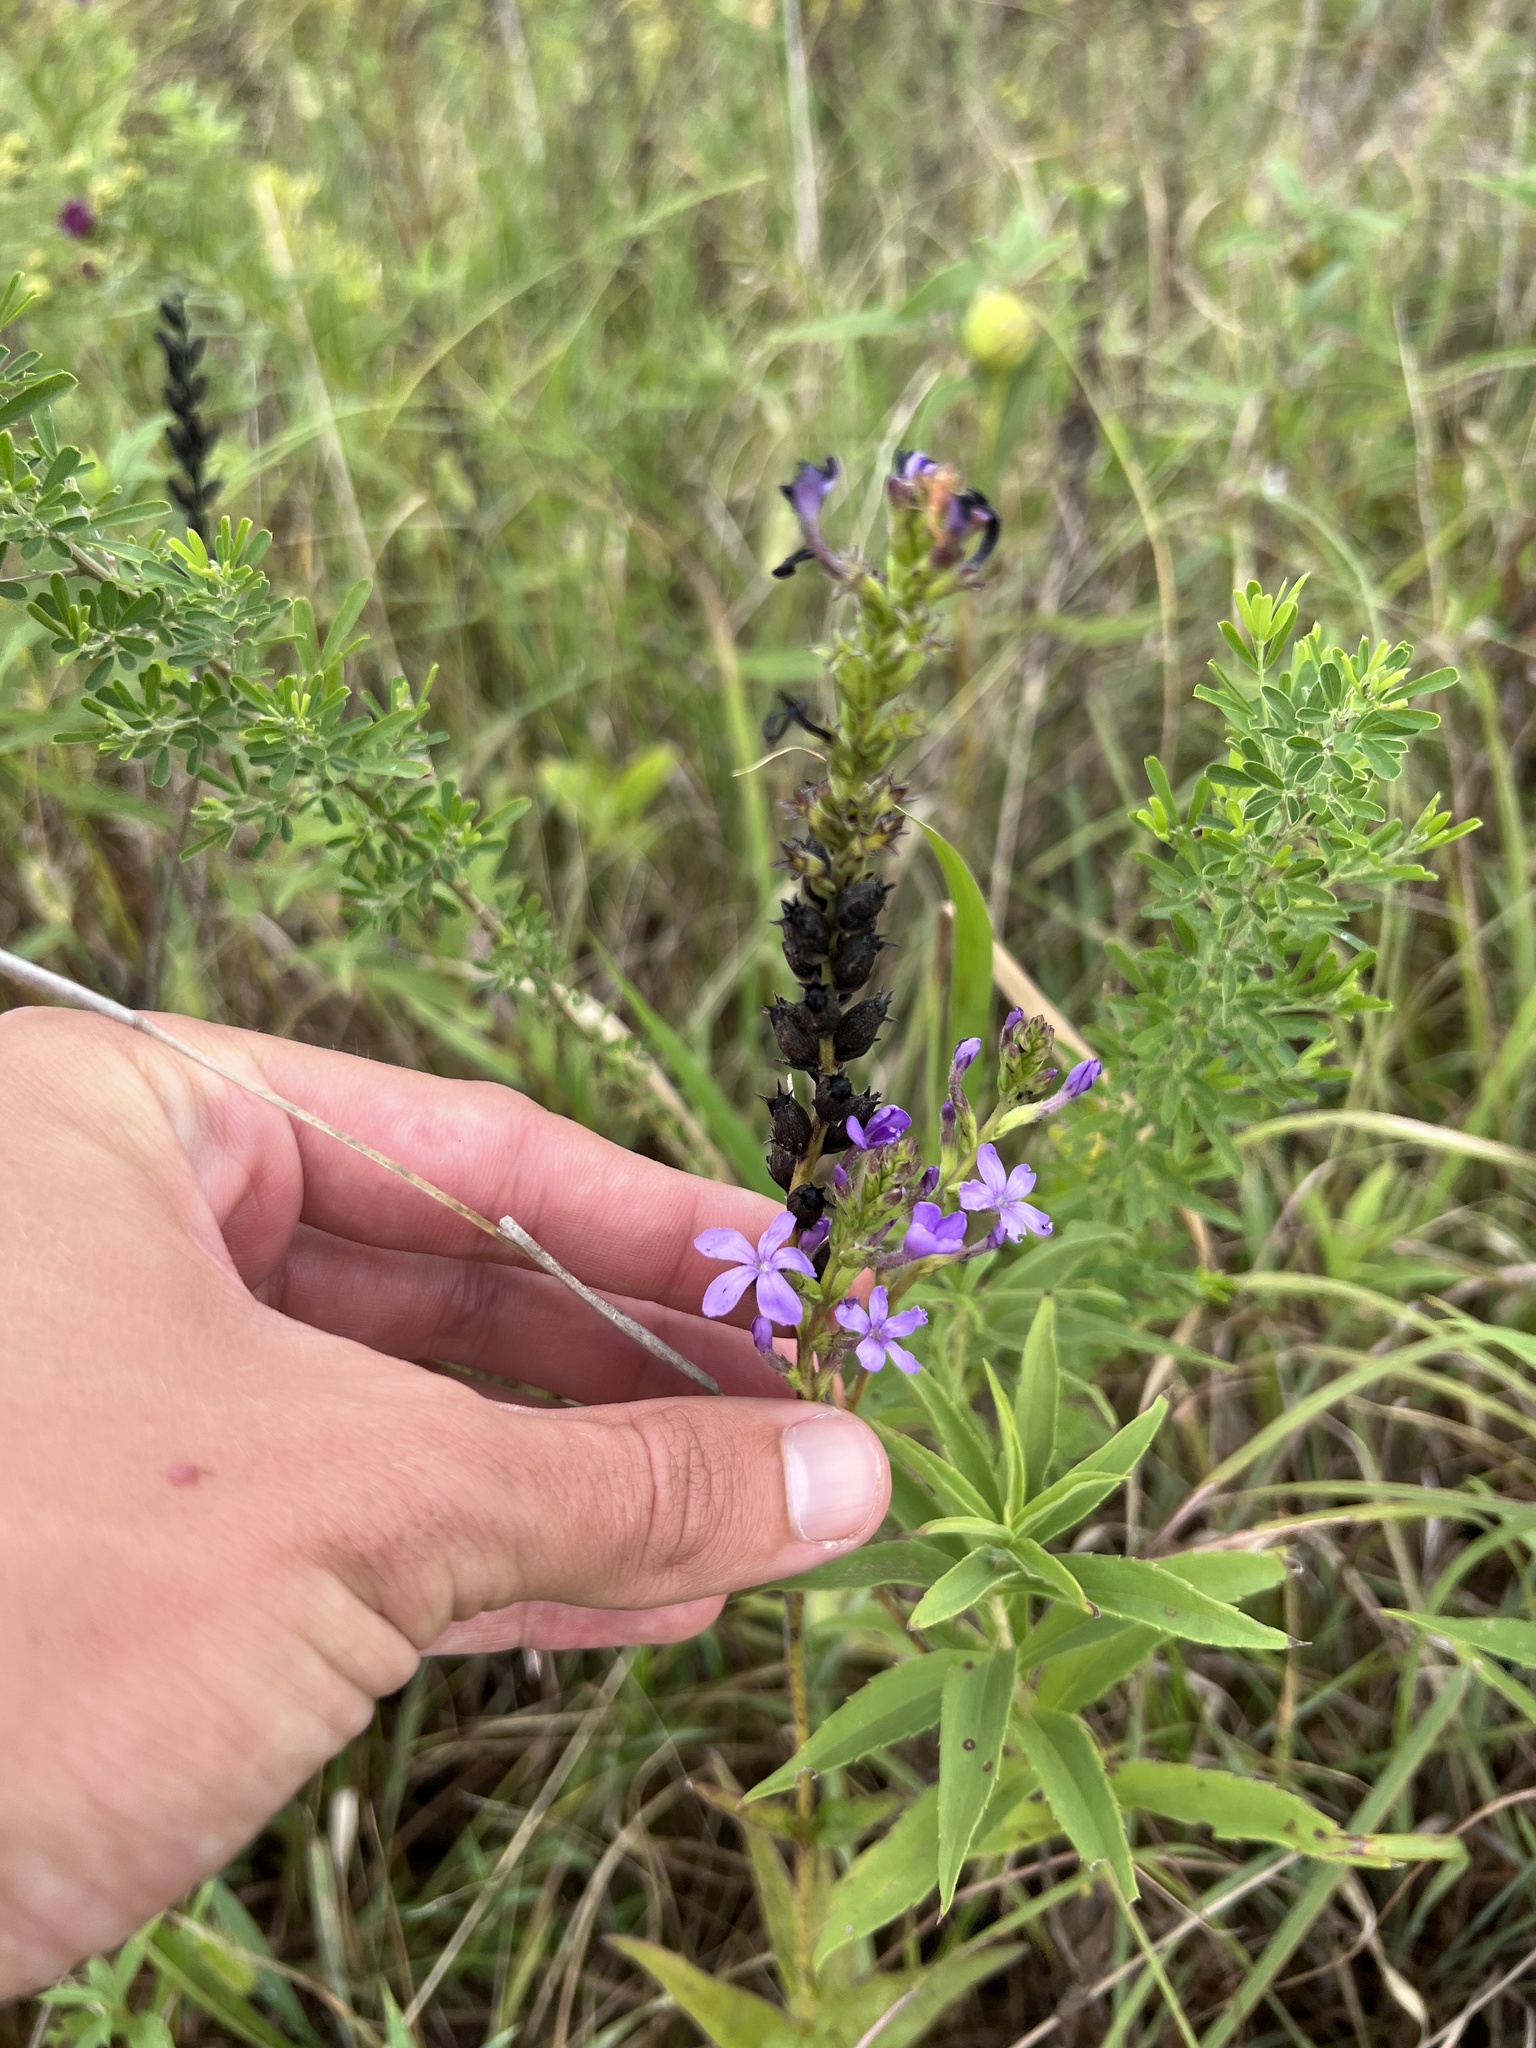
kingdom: Plantae
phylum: Tracheophyta
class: Magnoliopsida
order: Lamiales
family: Orobanchaceae
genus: Buchnera
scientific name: Buchnera americana
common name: American bluehearts
